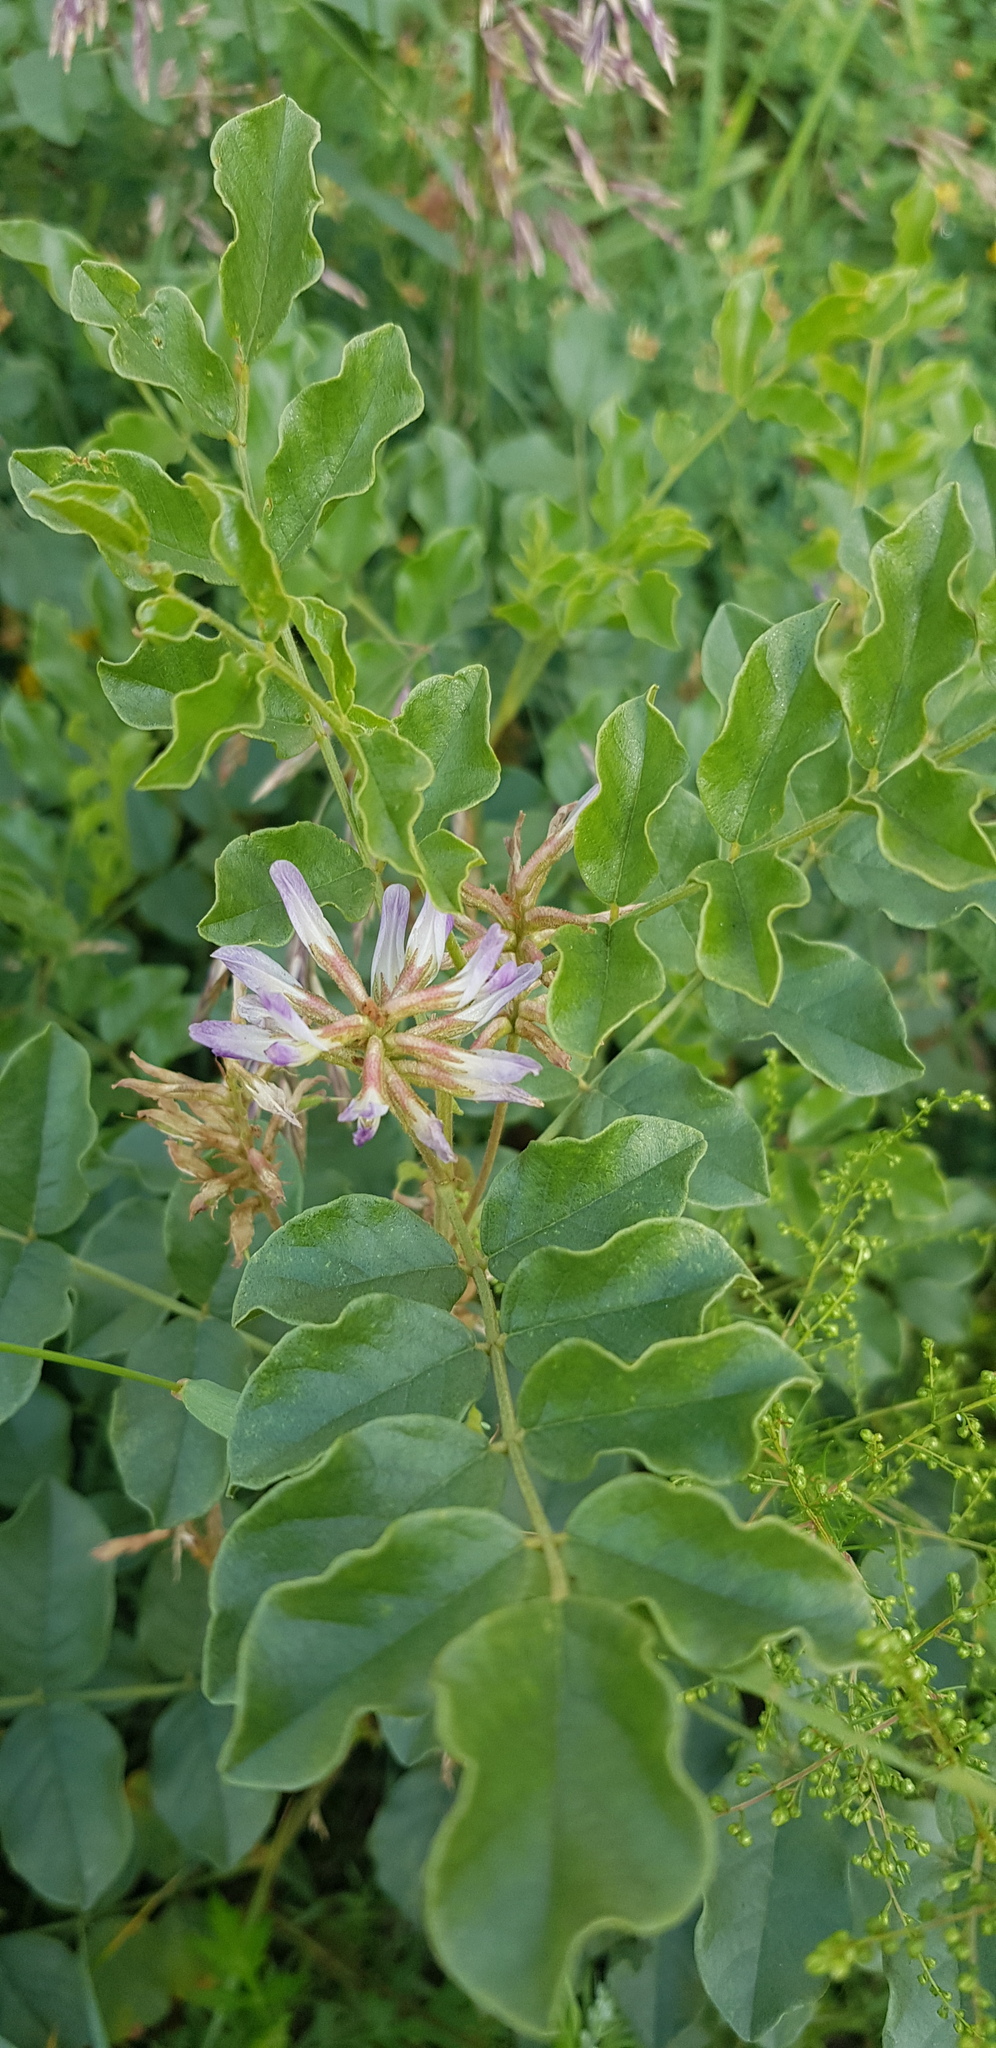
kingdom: Plantae
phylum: Tracheophyta
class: Magnoliopsida
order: Fabales
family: Fabaceae
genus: Glycyrrhiza
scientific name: Glycyrrhiza uralensis
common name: Chinese licorice
